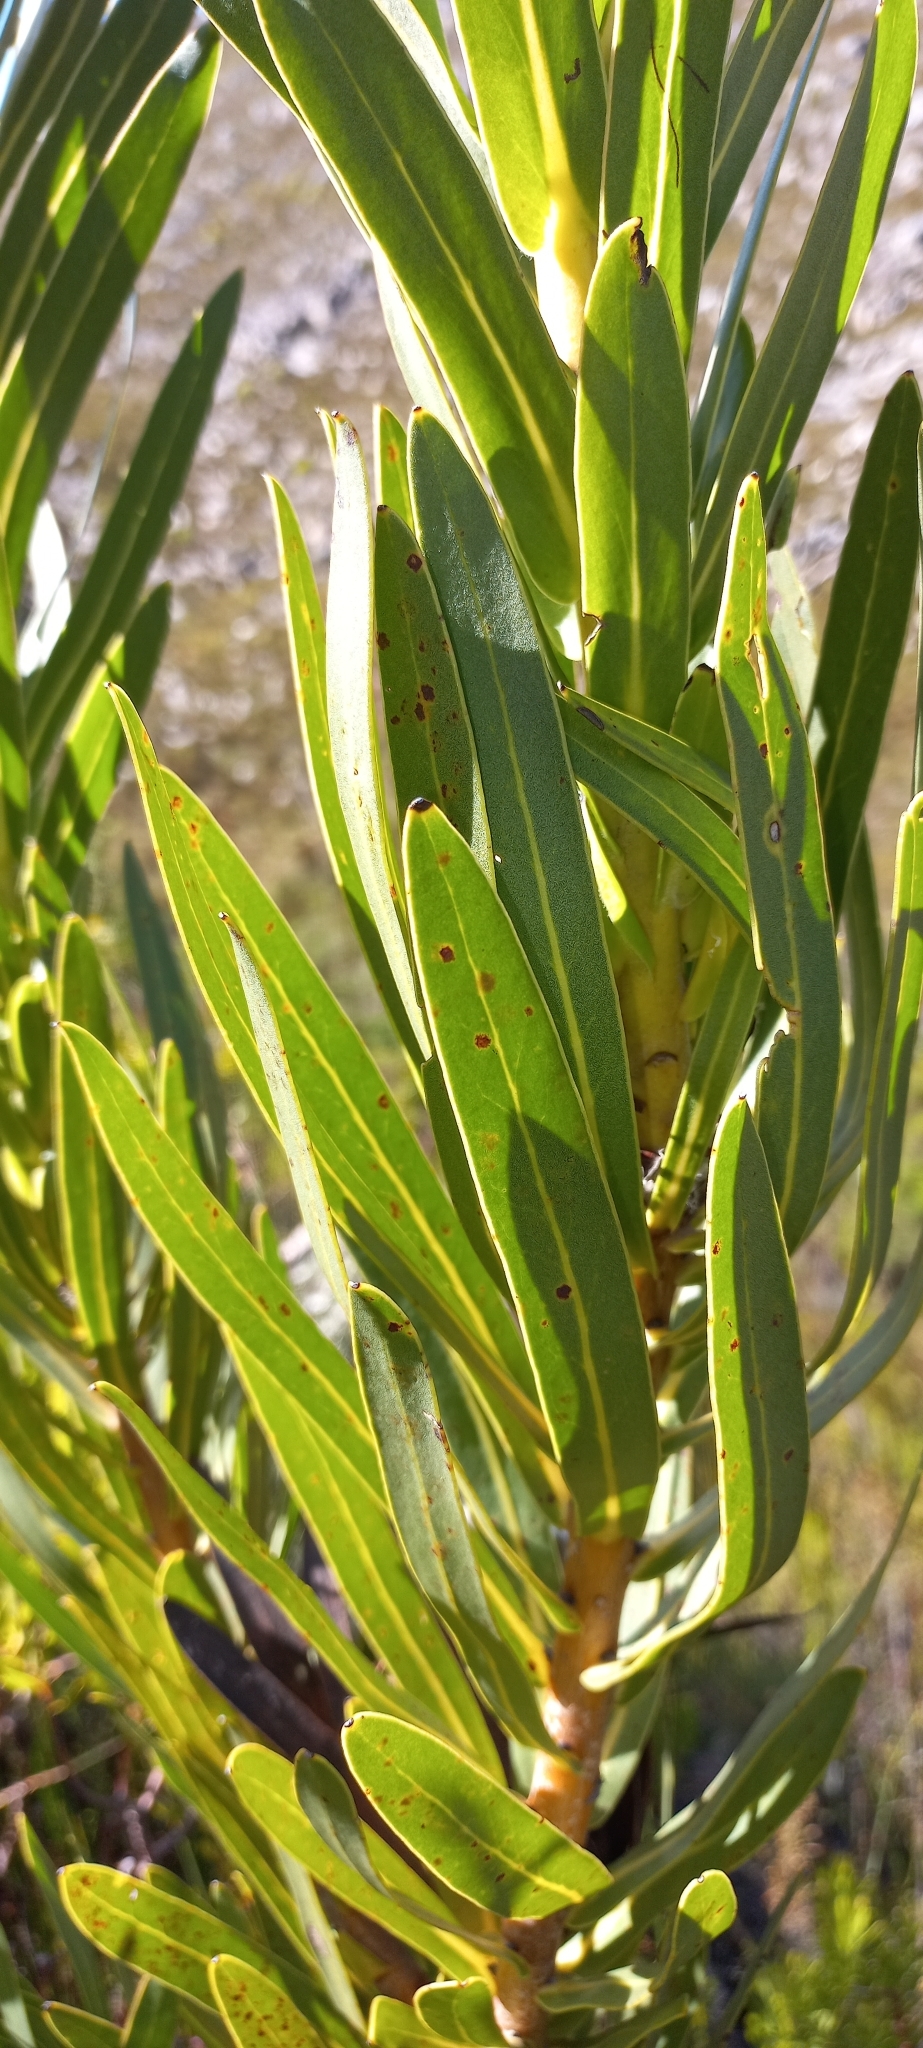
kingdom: Plantae
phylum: Tracheophyta
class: Magnoliopsida
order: Proteales
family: Proteaceae
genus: Protea
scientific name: Protea lepidocarpodendron
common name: Black-bearded protea
